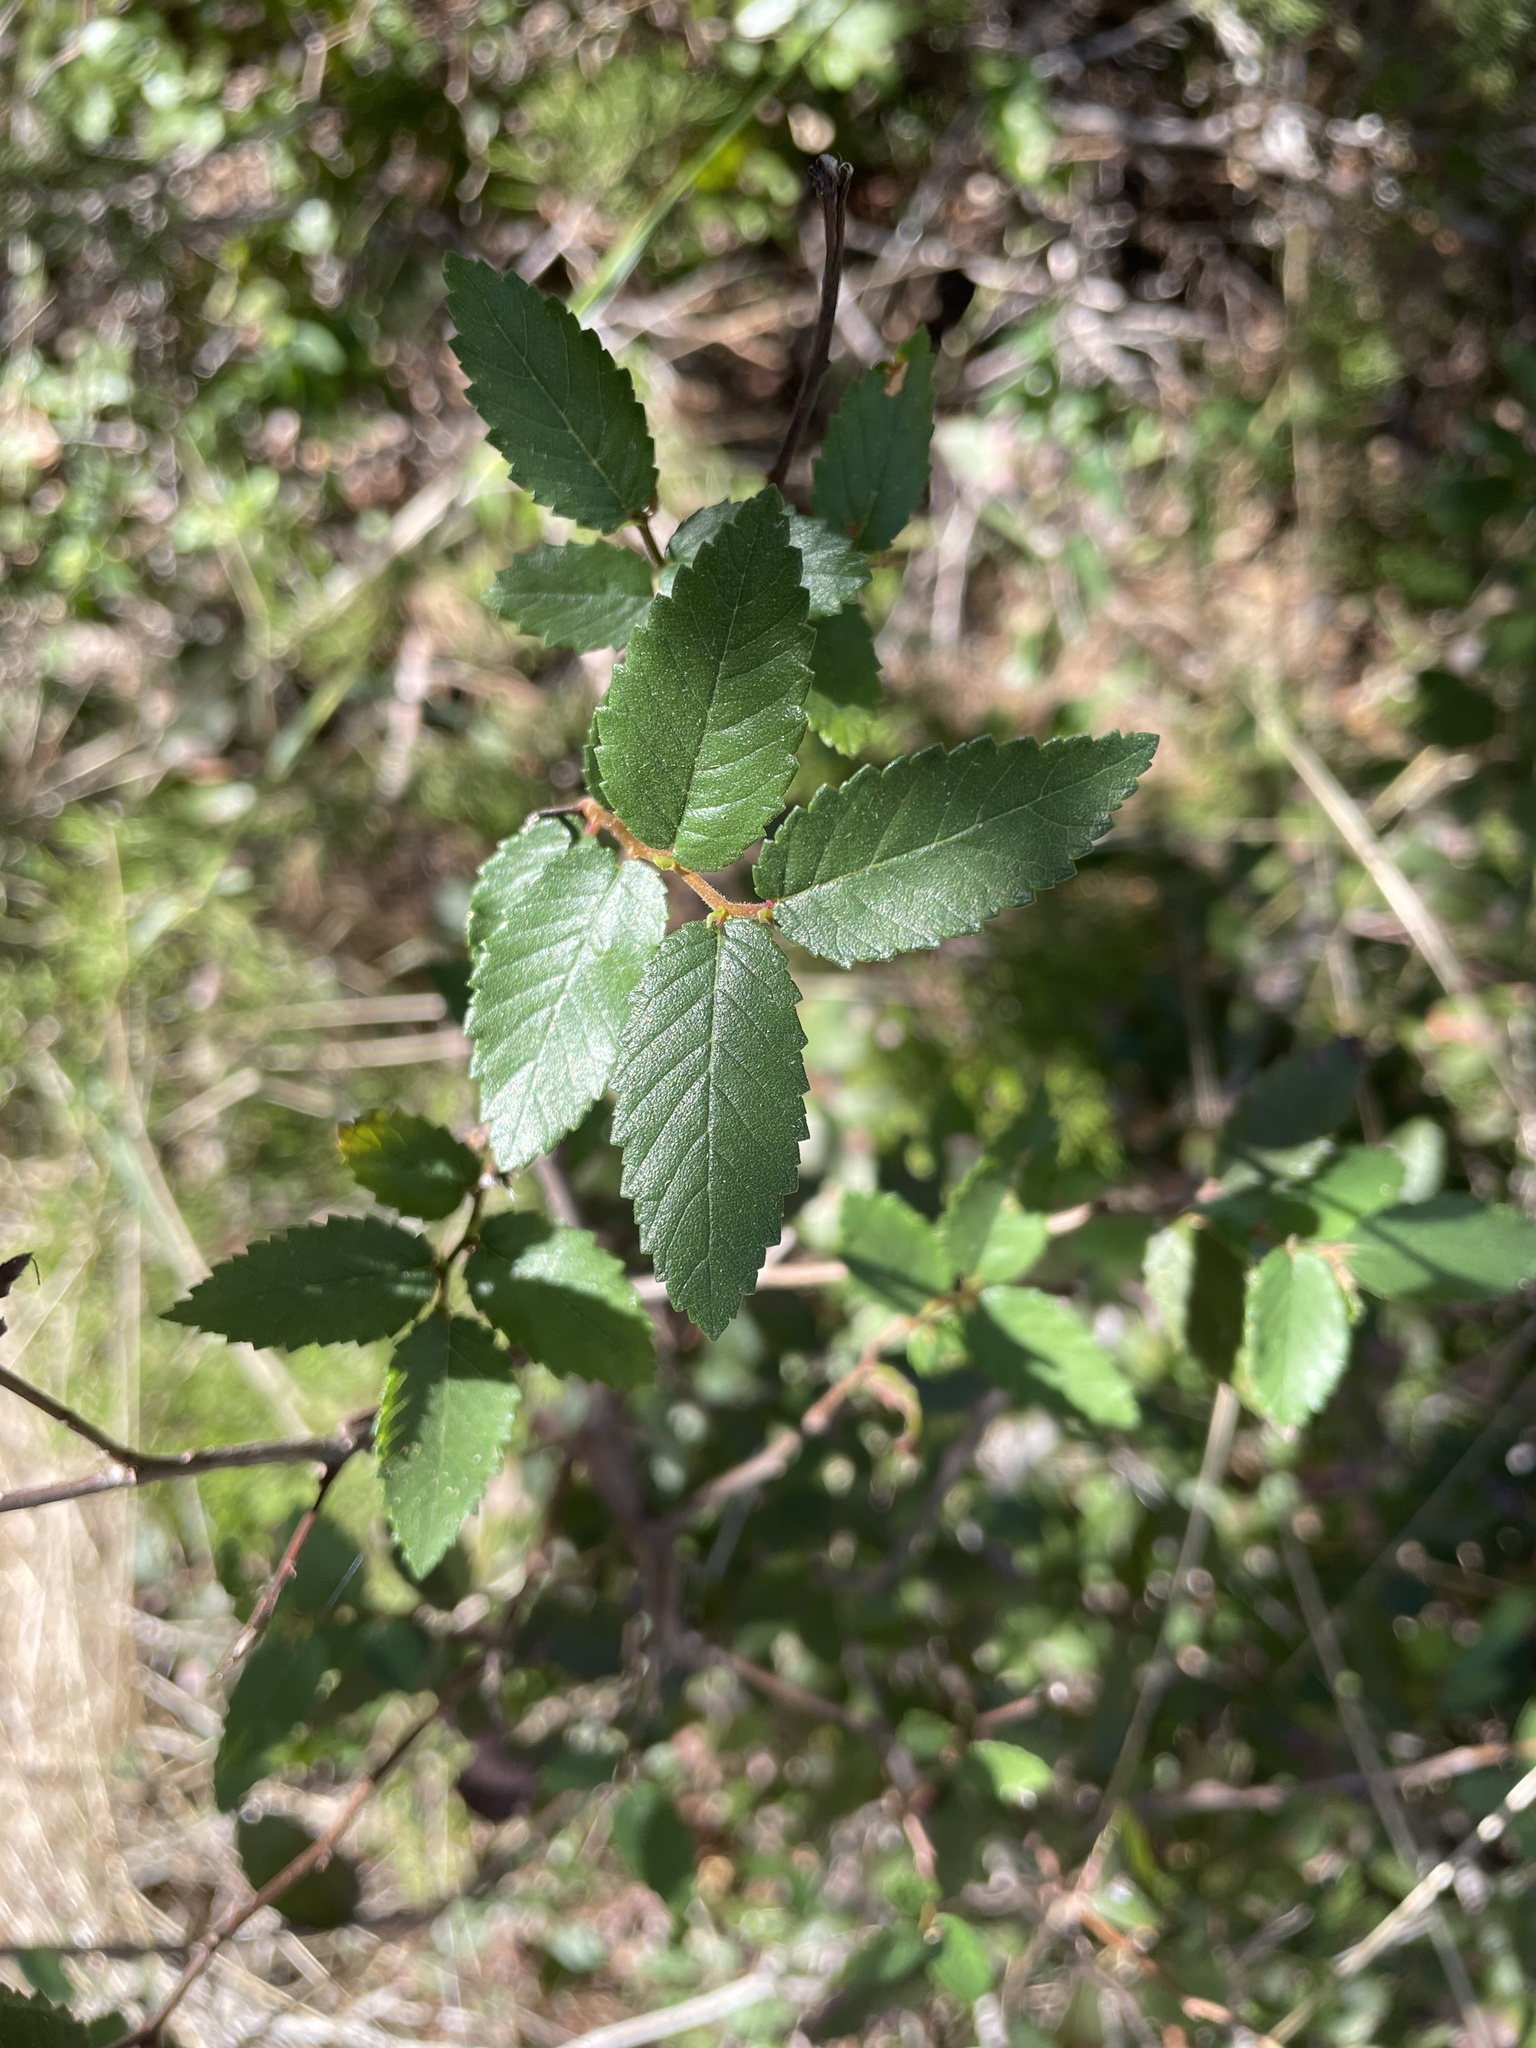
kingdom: Plantae
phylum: Tracheophyta
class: Magnoliopsida
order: Rosales
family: Ulmaceae
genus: Ulmus
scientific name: Ulmus crassifolia
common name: Basket elm
